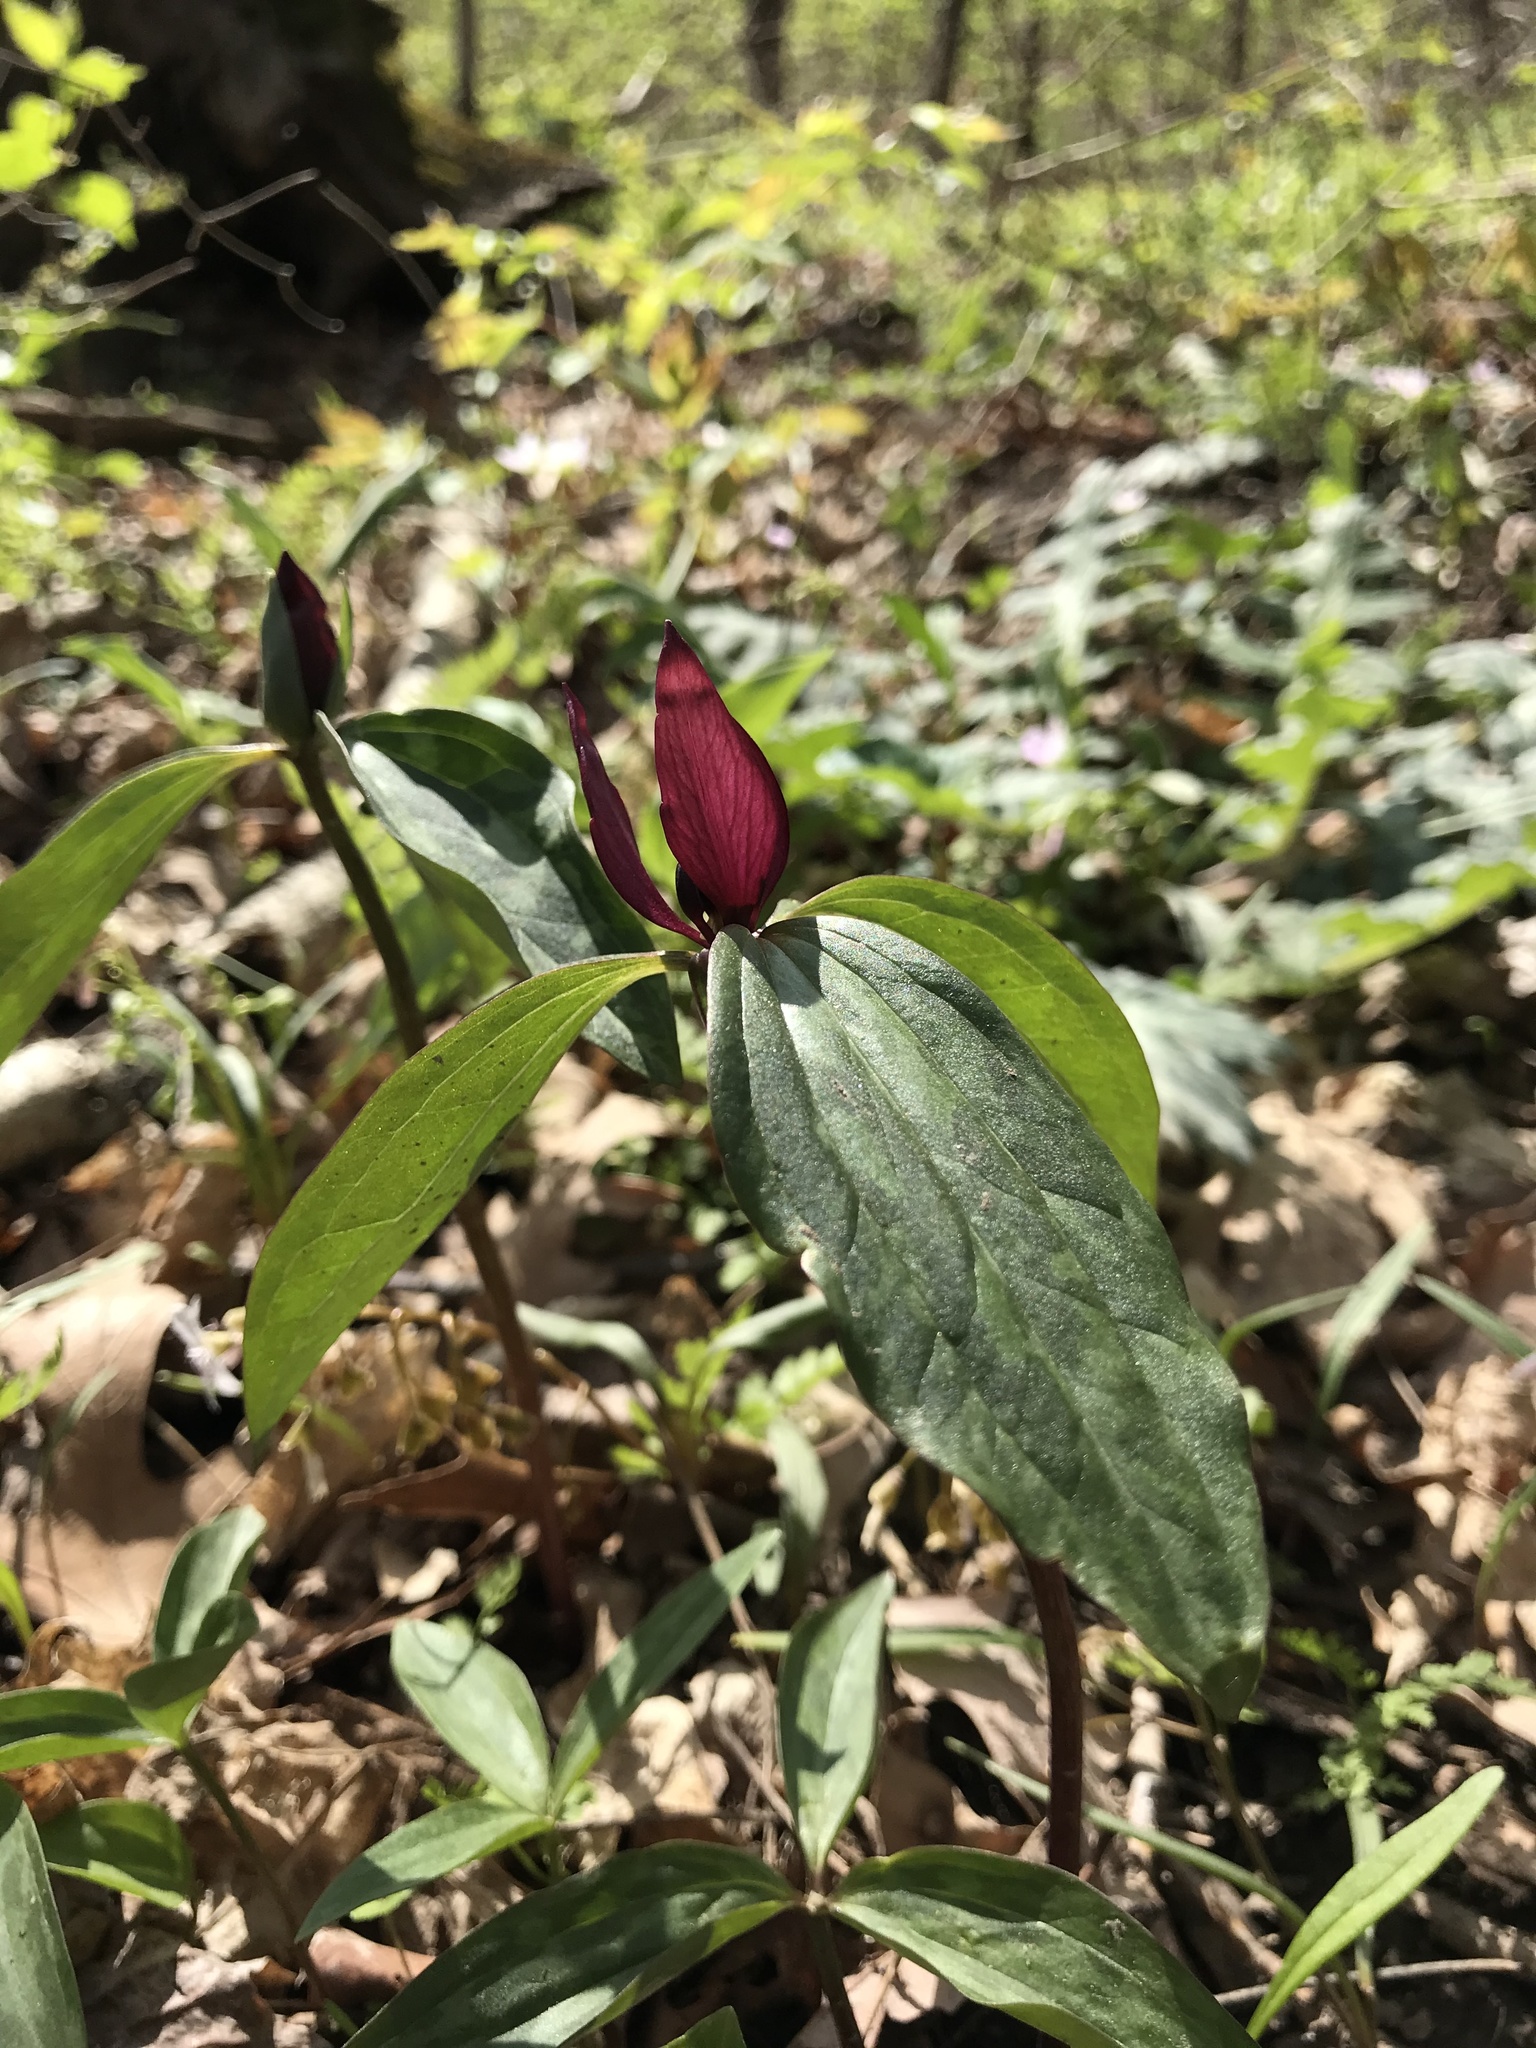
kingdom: Plantae
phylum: Tracheophyta
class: Liliopsida
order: Liliales
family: Melanthiaceae
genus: Trillium
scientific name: Trillium recurvatum
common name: Bloody butcher
